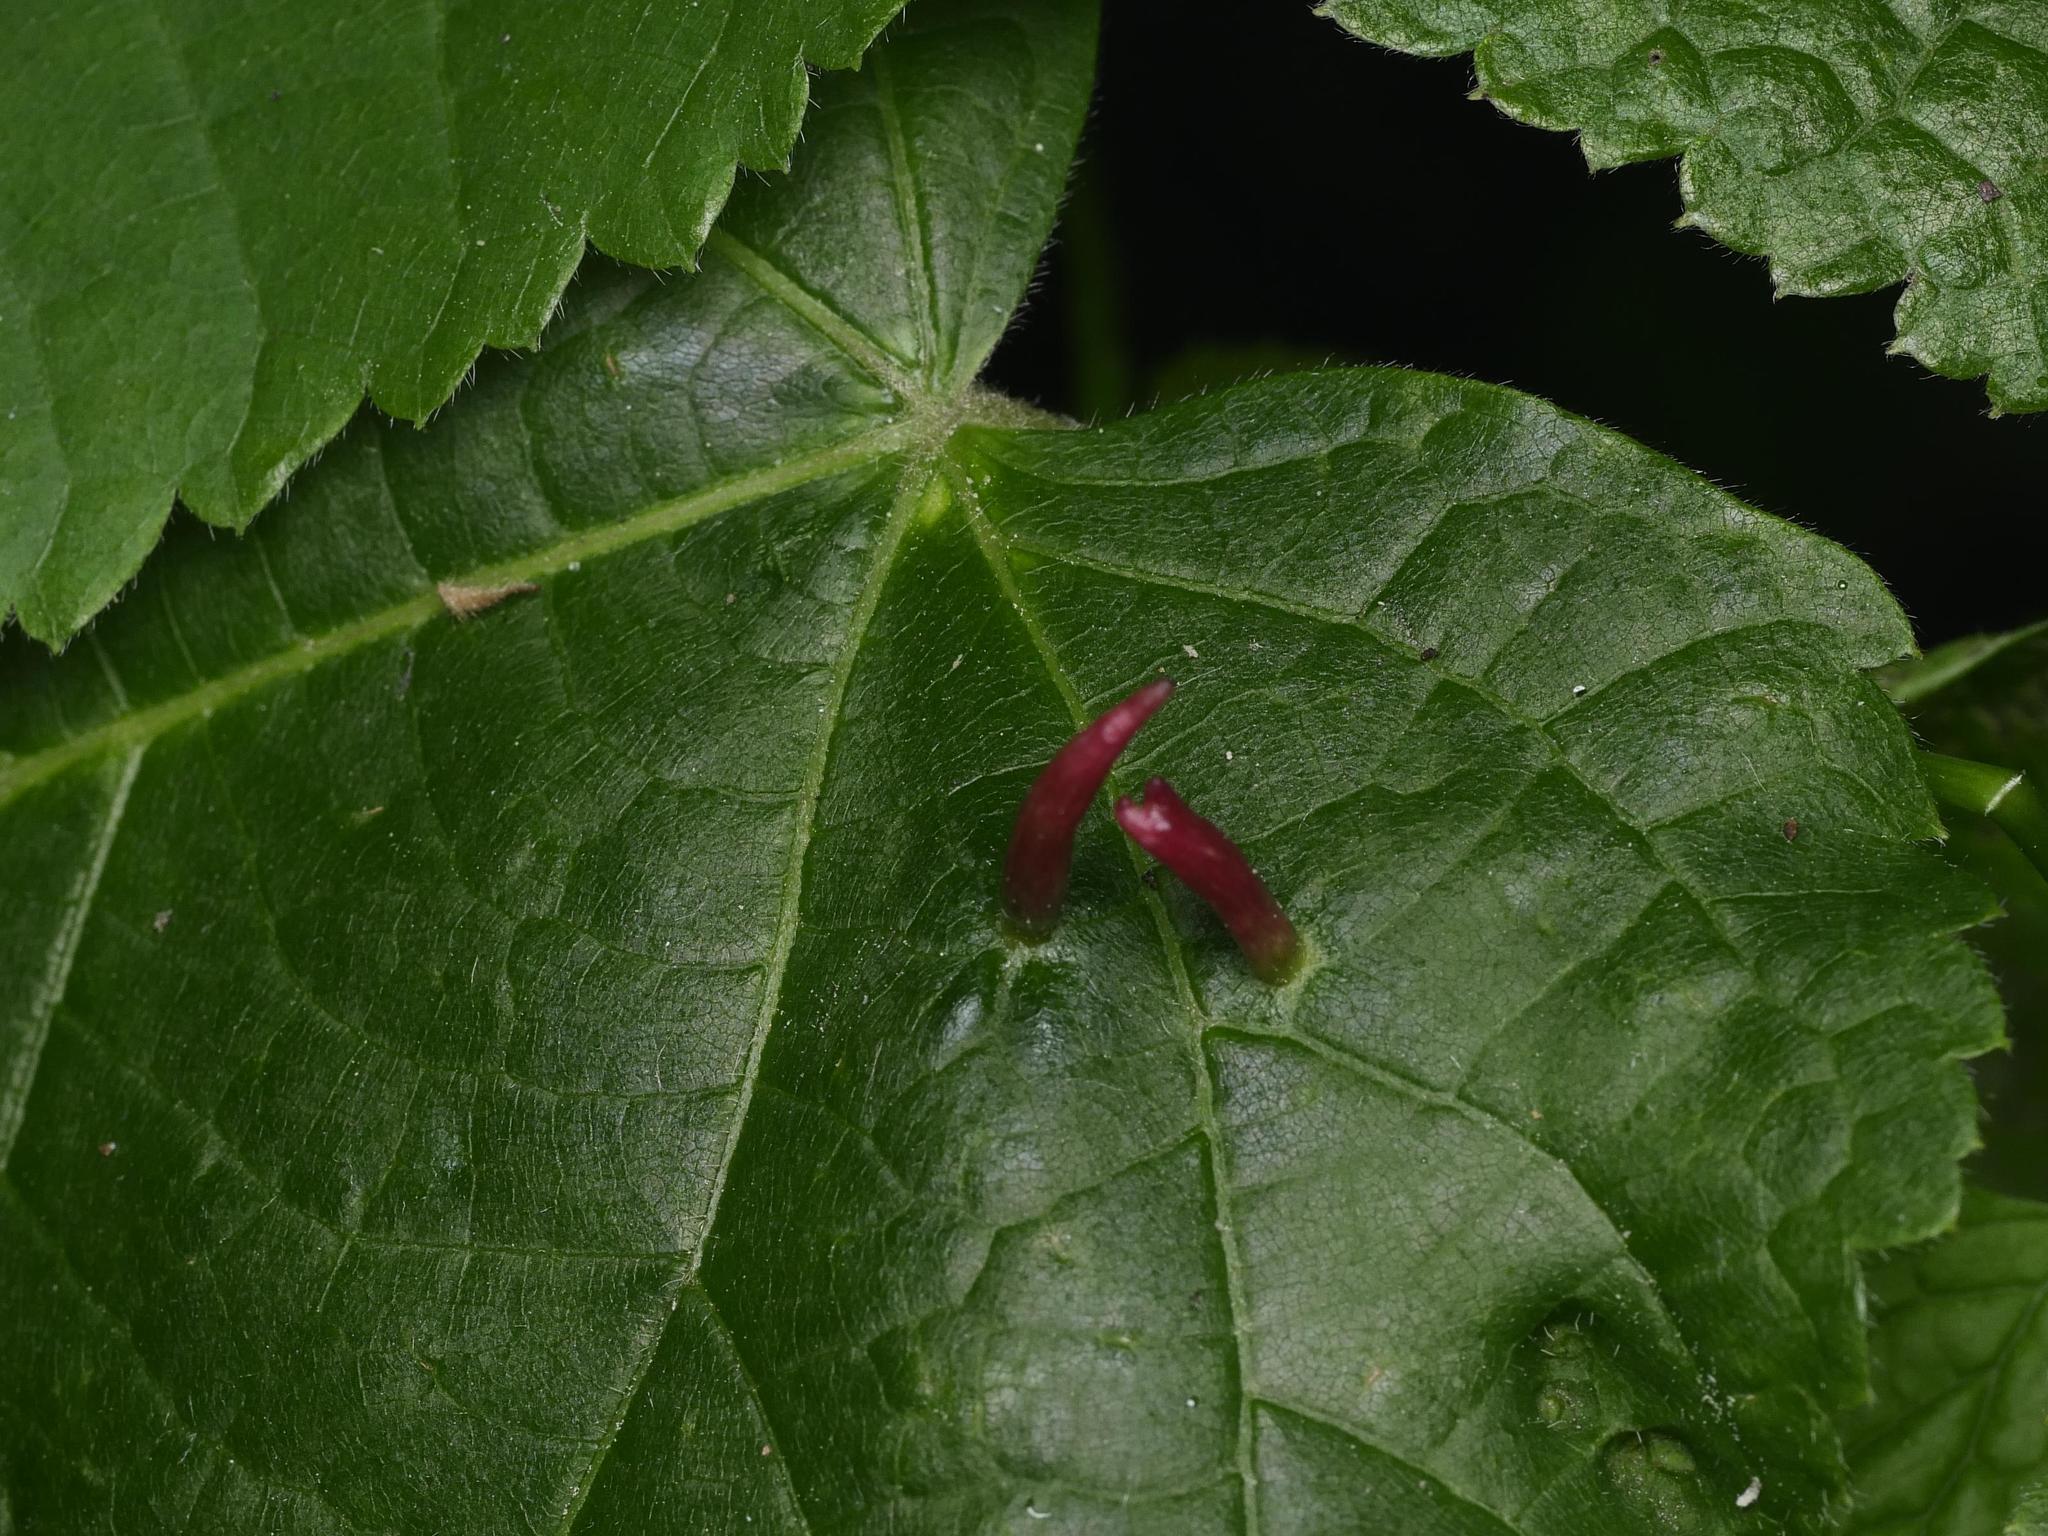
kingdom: Animalia
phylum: Arthropoda
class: Arachnida
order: Trombidiformes
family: Eriophyidae
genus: Eriophyes
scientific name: Eriophyes tiliae
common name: Red nail gall mite
